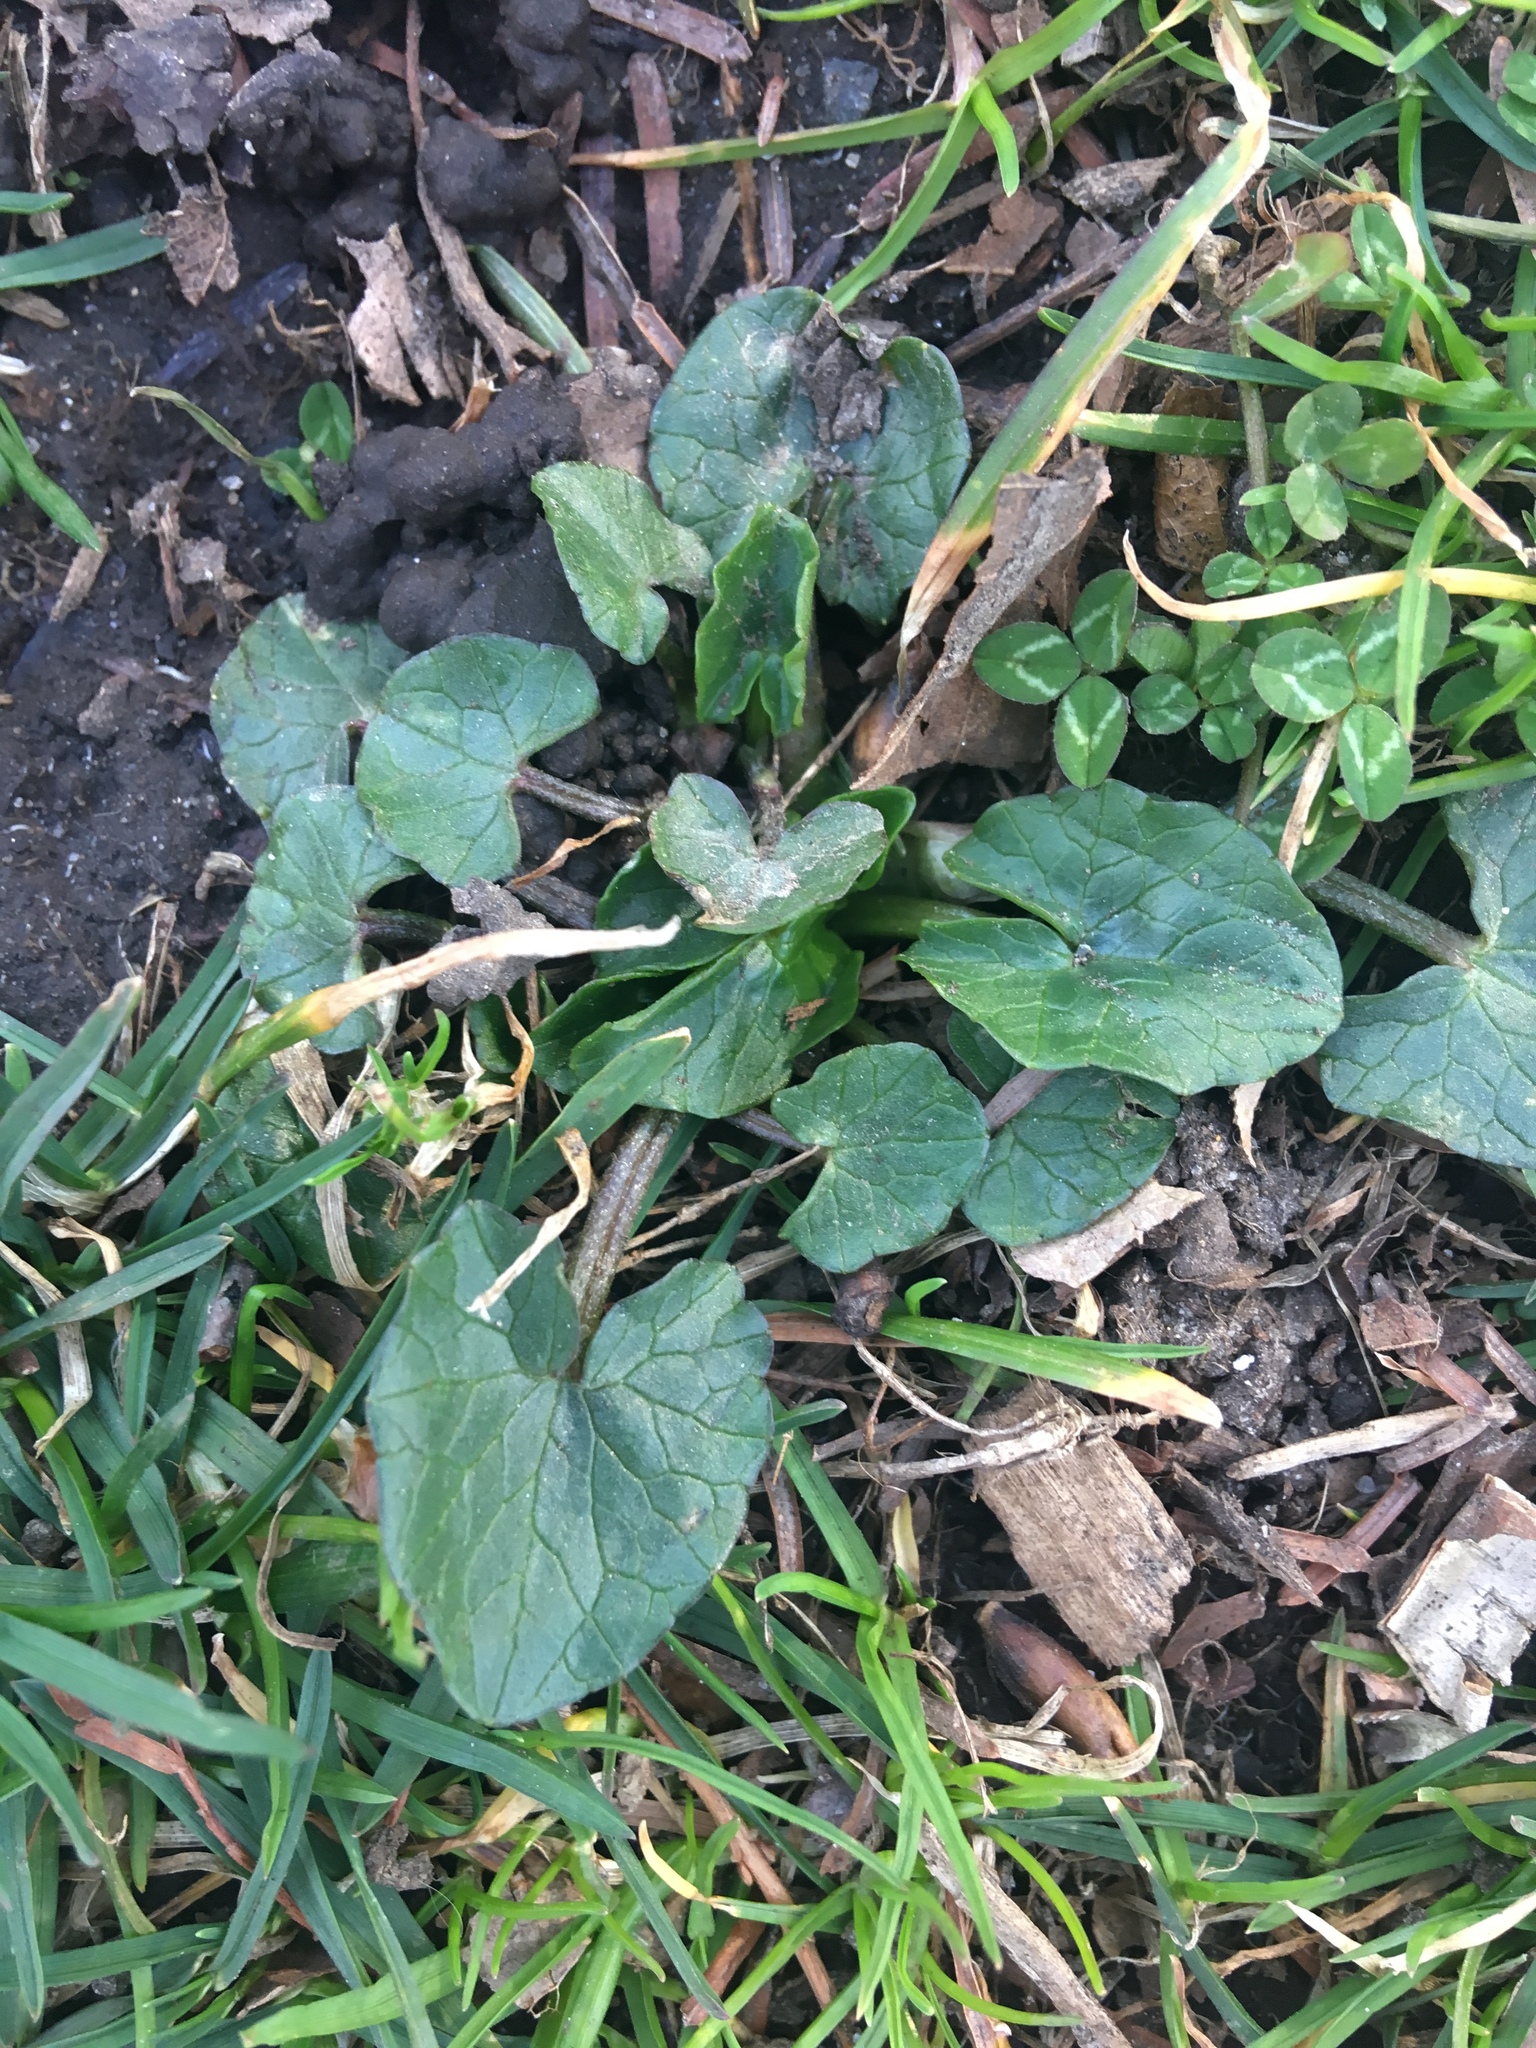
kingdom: Plantae
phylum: Tracheophyta
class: Magnoliopsida
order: Ranunculales
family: Ranunculaceae
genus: Ficaria
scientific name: Ficaria verna
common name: Lesser celandine
